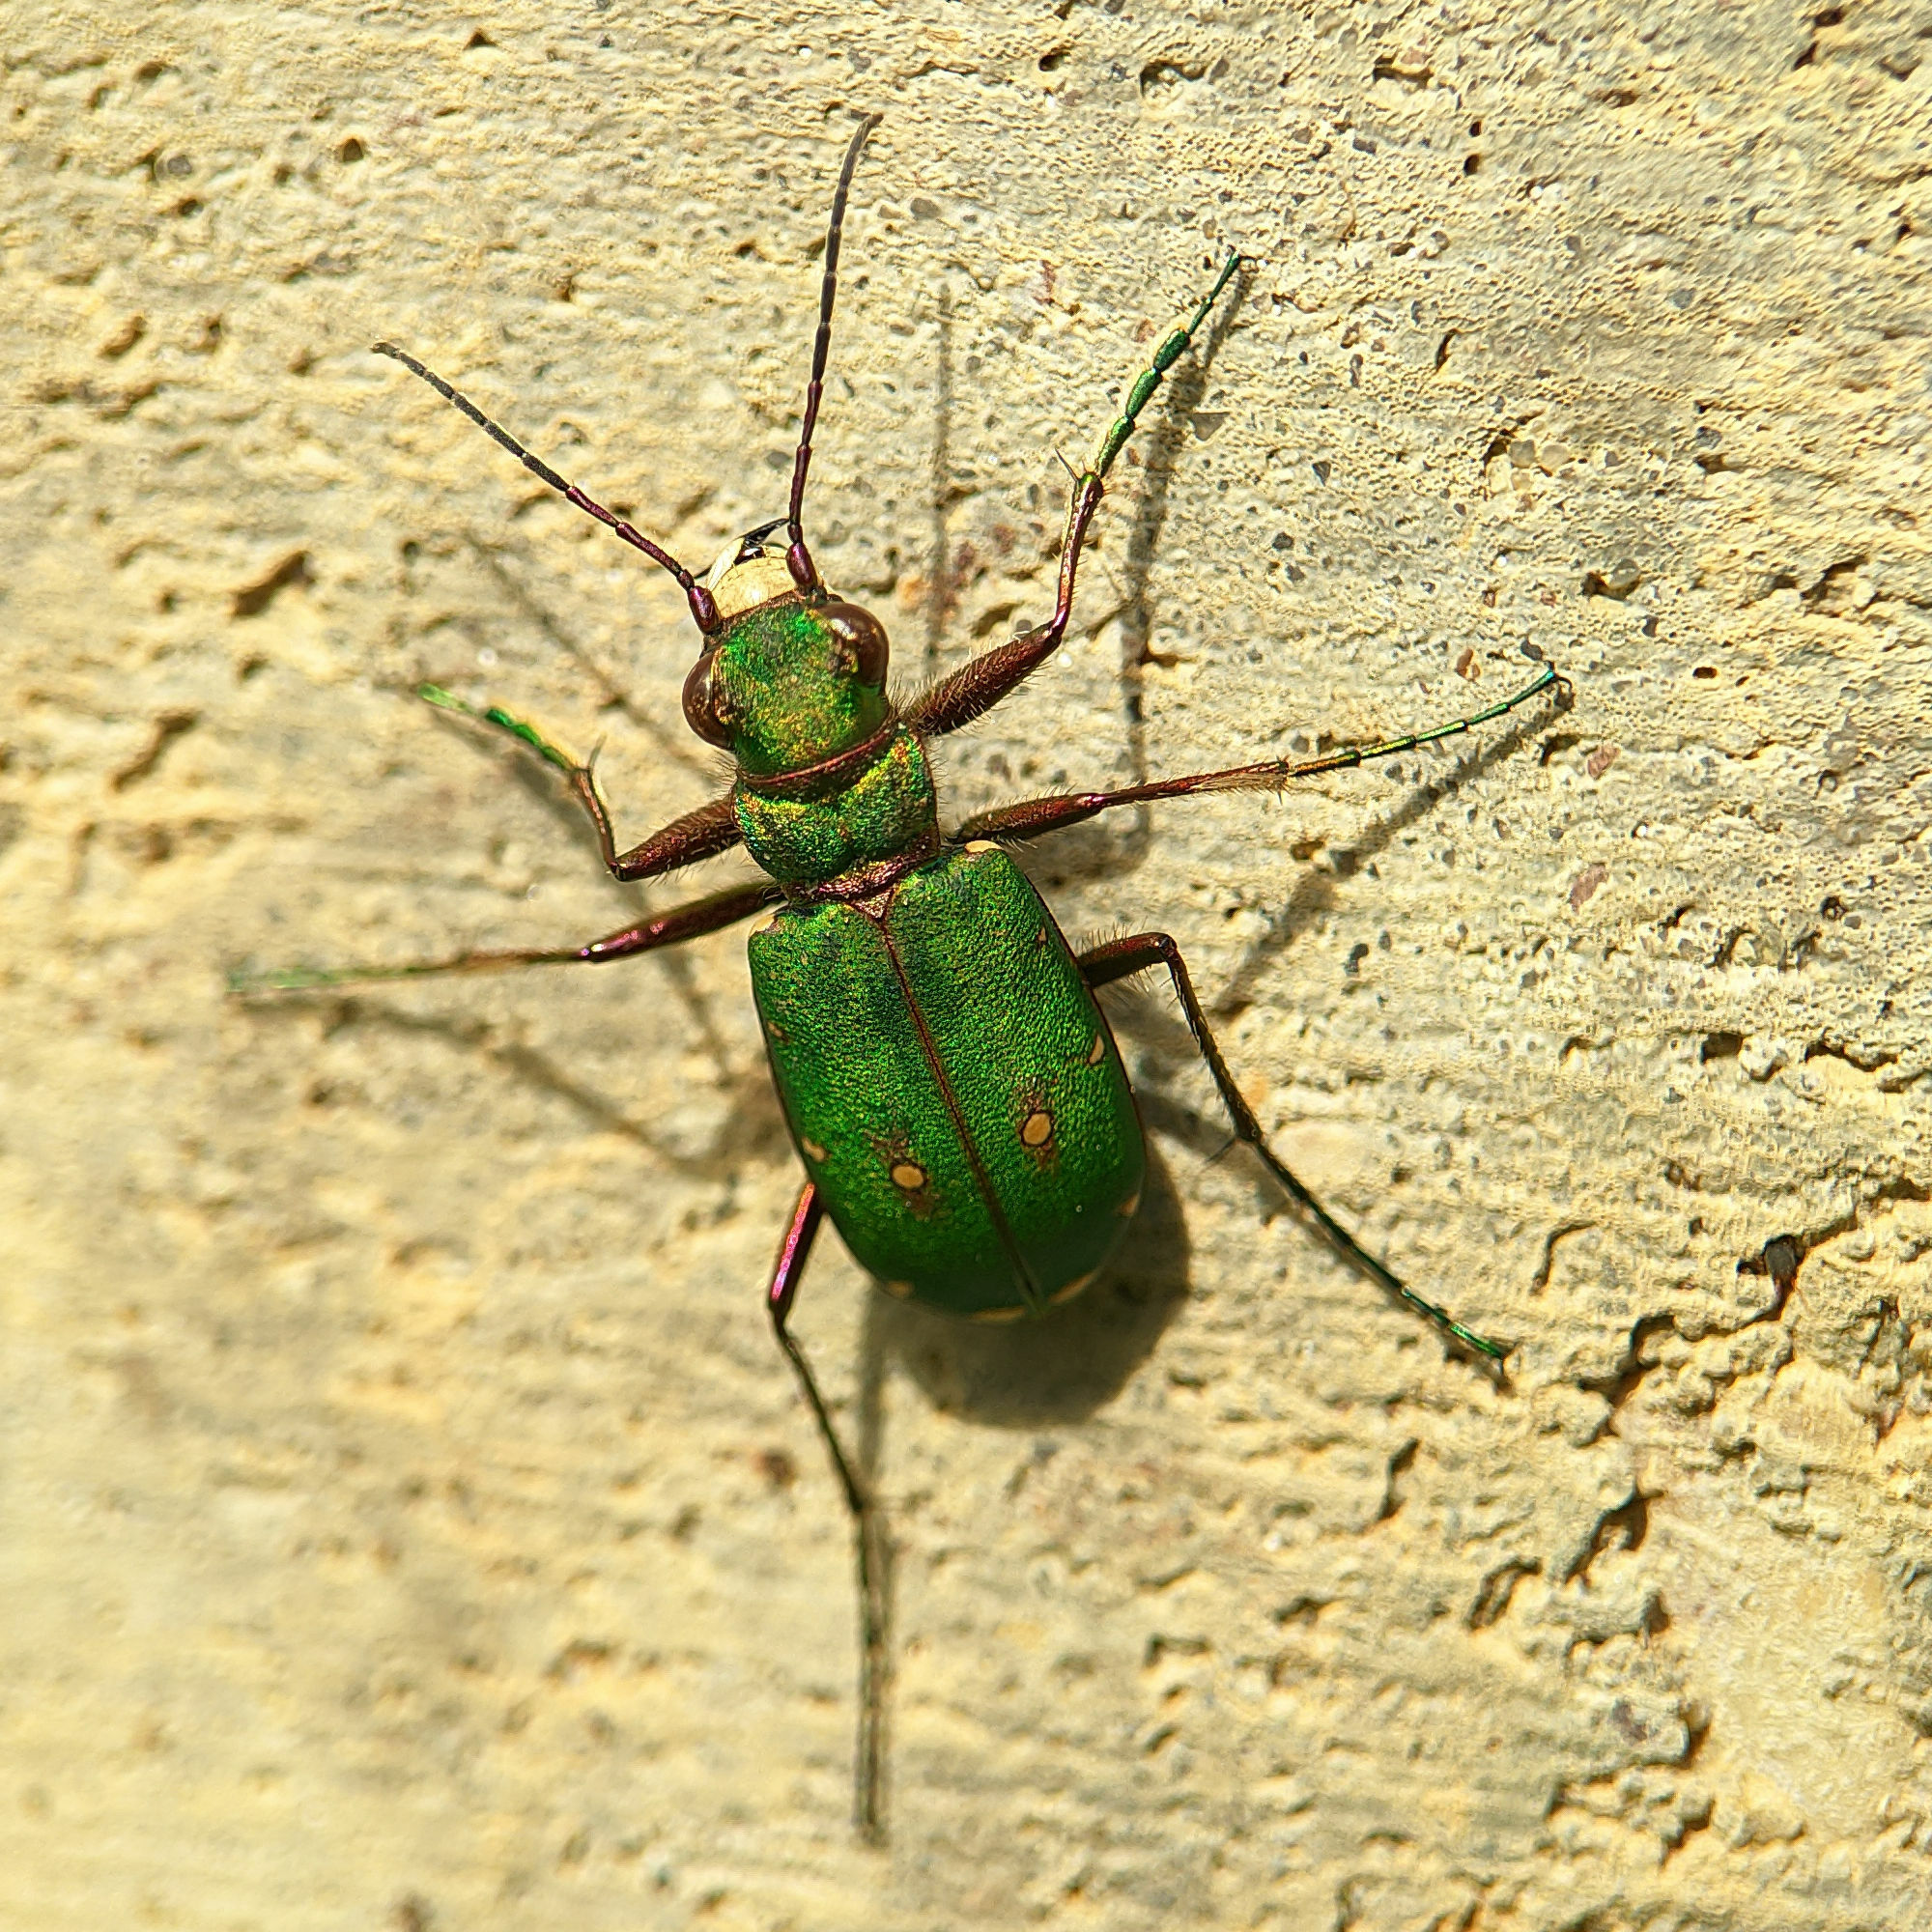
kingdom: Animalia
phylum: Arthropoda
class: Insecta
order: Coleoptera
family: Carabidae
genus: Cicindela
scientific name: Cicindela campestris
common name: Common tiger beetle
